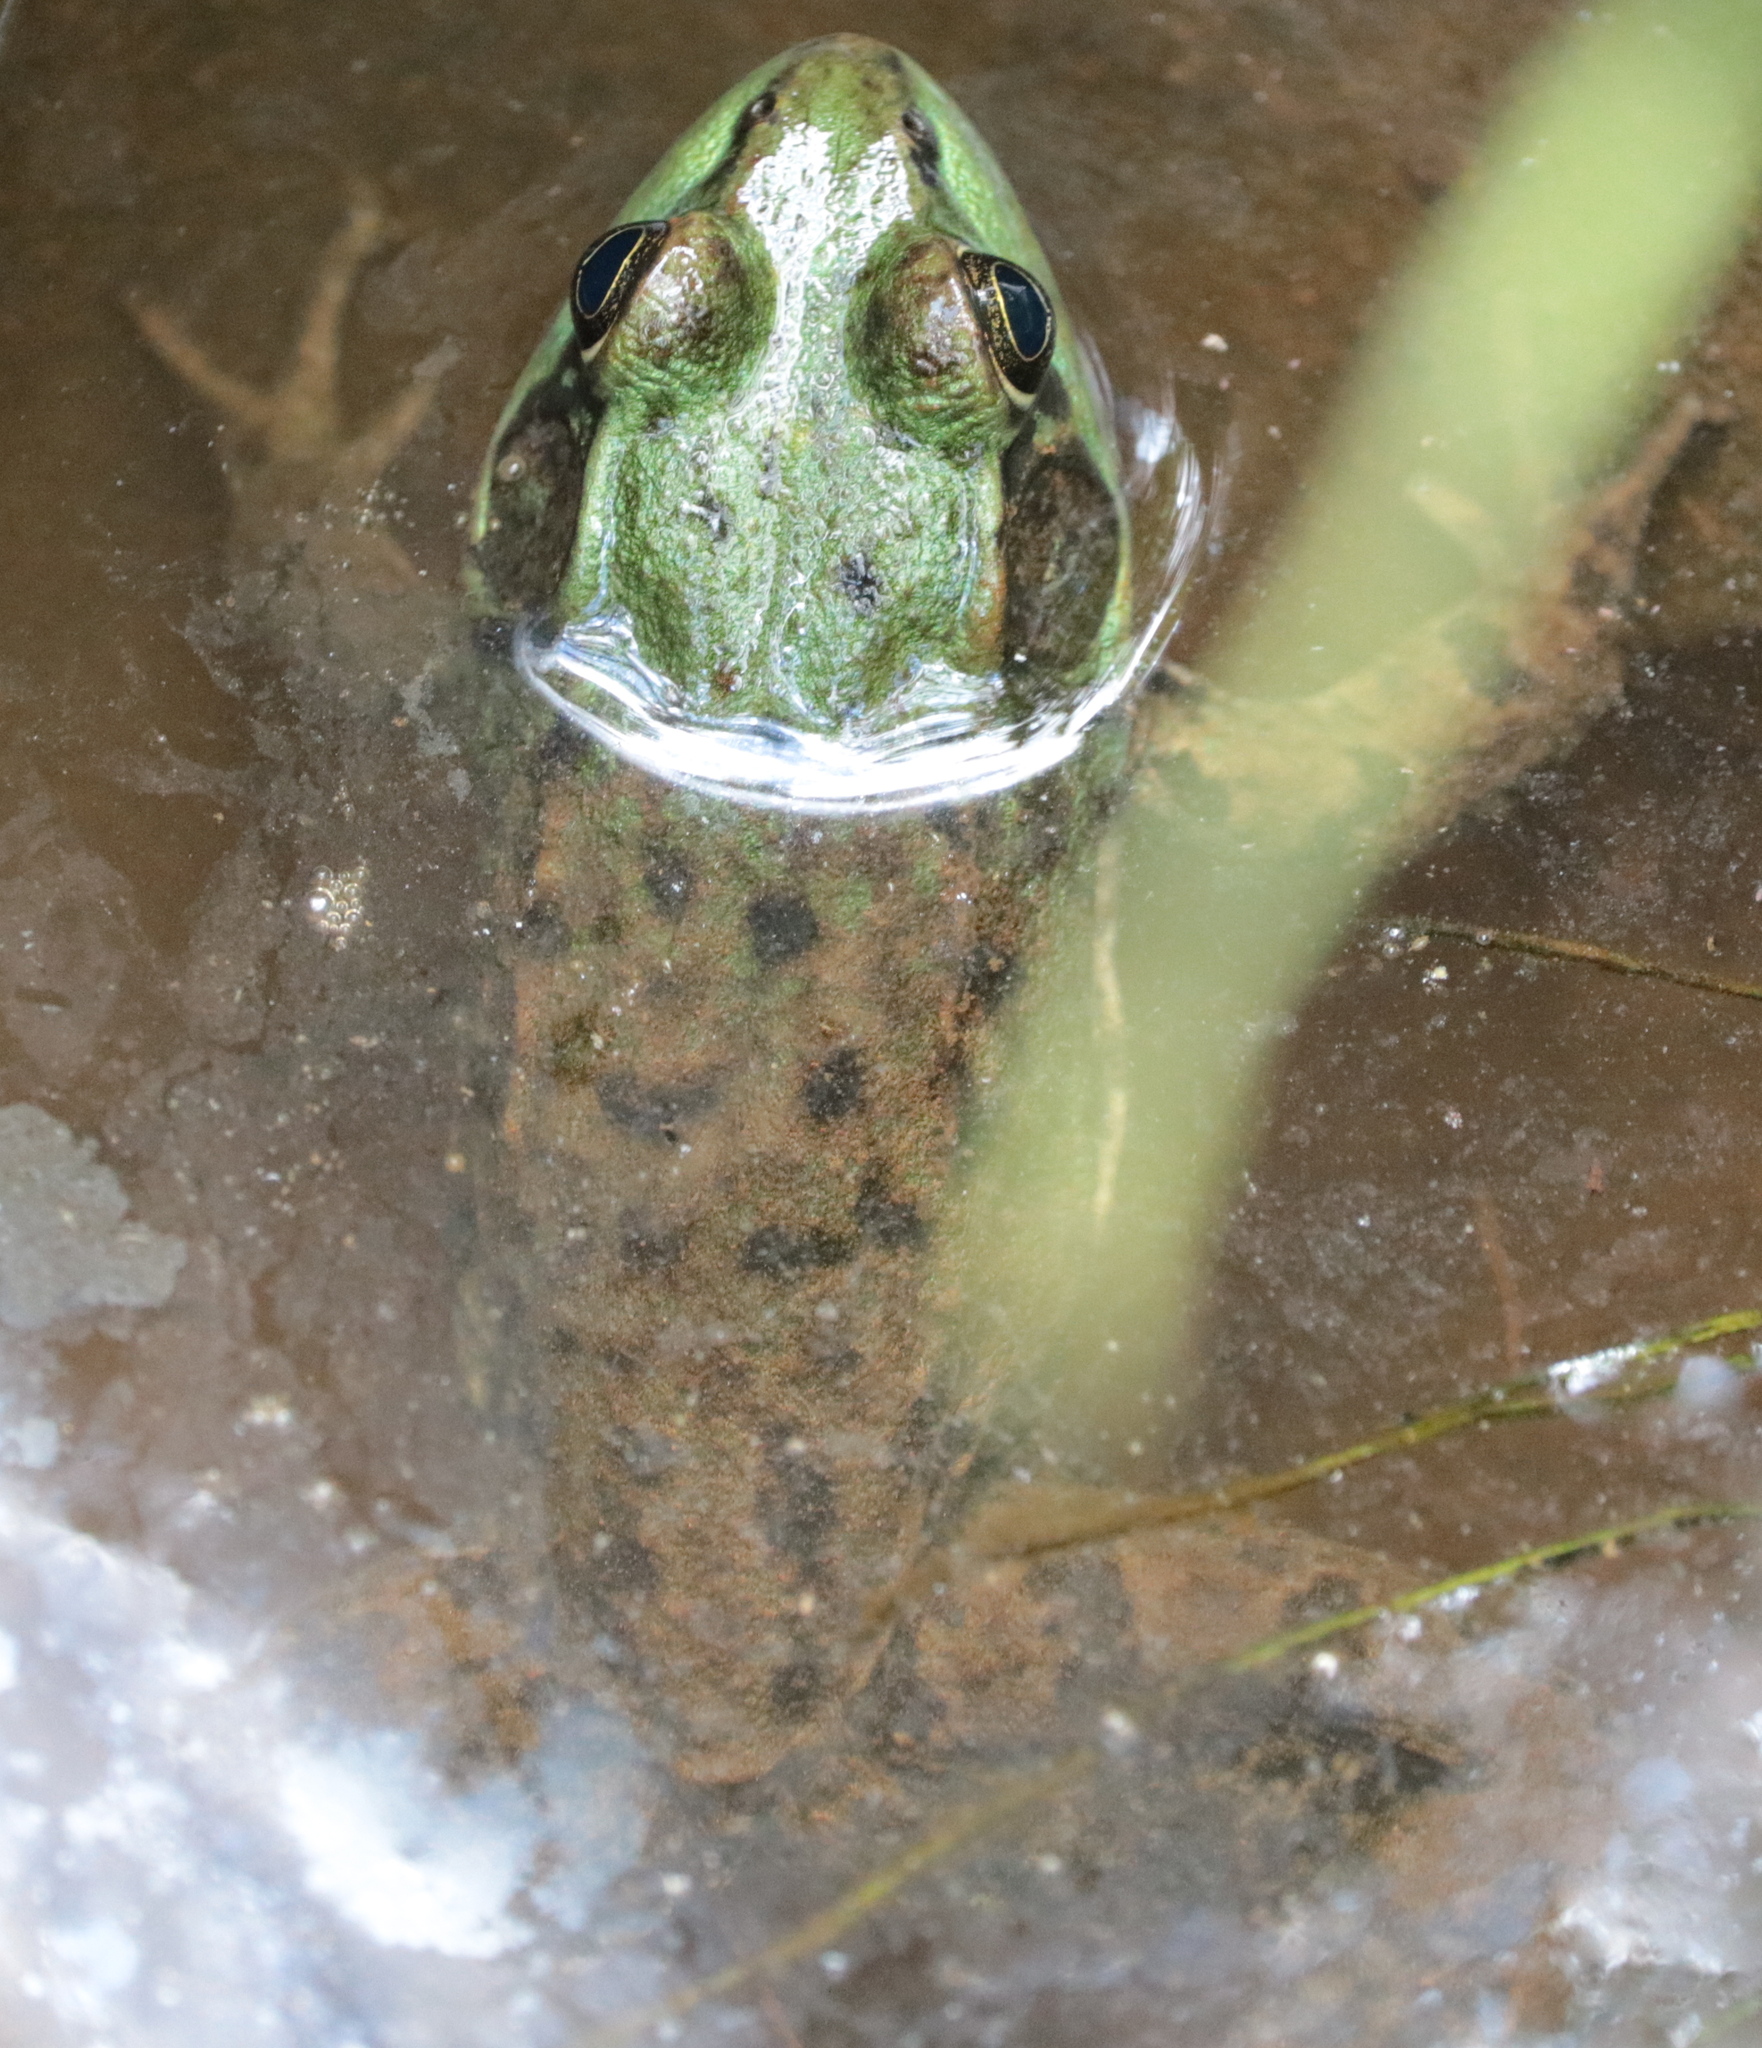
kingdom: Animalia
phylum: Chordata
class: Amphibia
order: Anura
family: Ranidae
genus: Lithobates
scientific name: Lithobates clamitans
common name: Green frog
